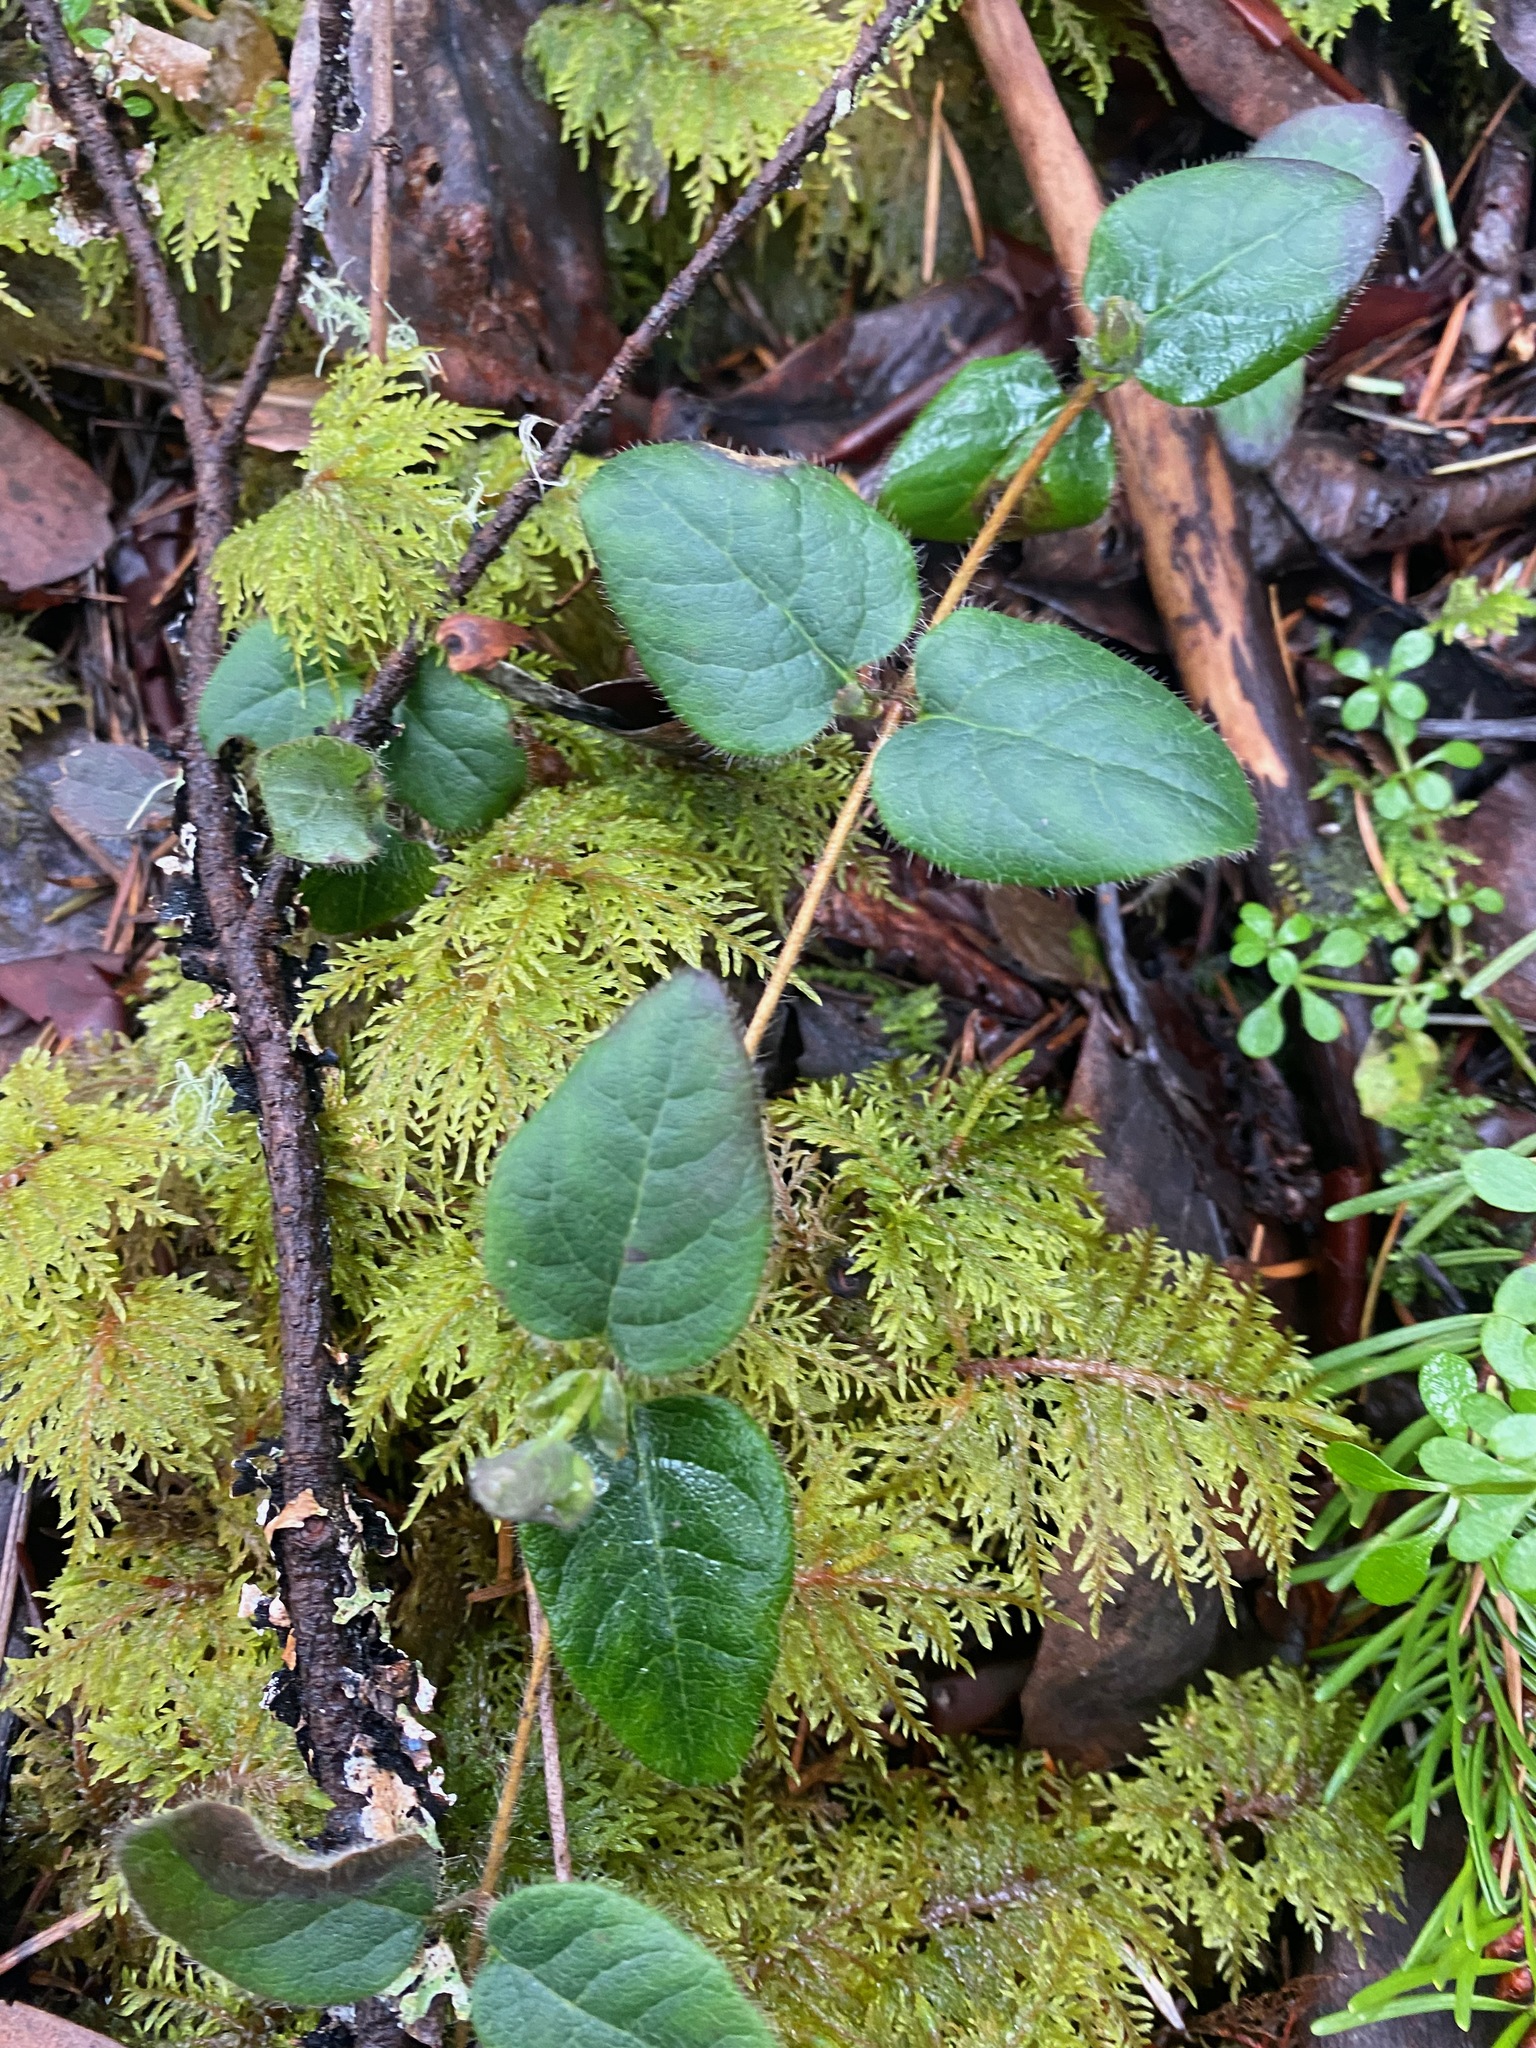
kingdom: Plantae
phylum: Tracheophyta
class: Magnoliopsida
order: Dipsacales
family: Caprifoliaceae
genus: Lonicera
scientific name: Lonicera hispidula
